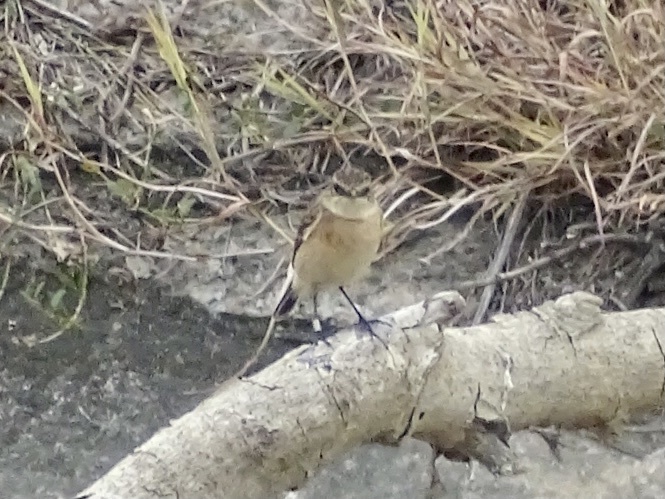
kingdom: Animalia
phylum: Chordata
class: Aves
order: Passeriformes
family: Muscicapidae
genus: Saxicola
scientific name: Saxicola maurus
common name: Siberian stonechat
